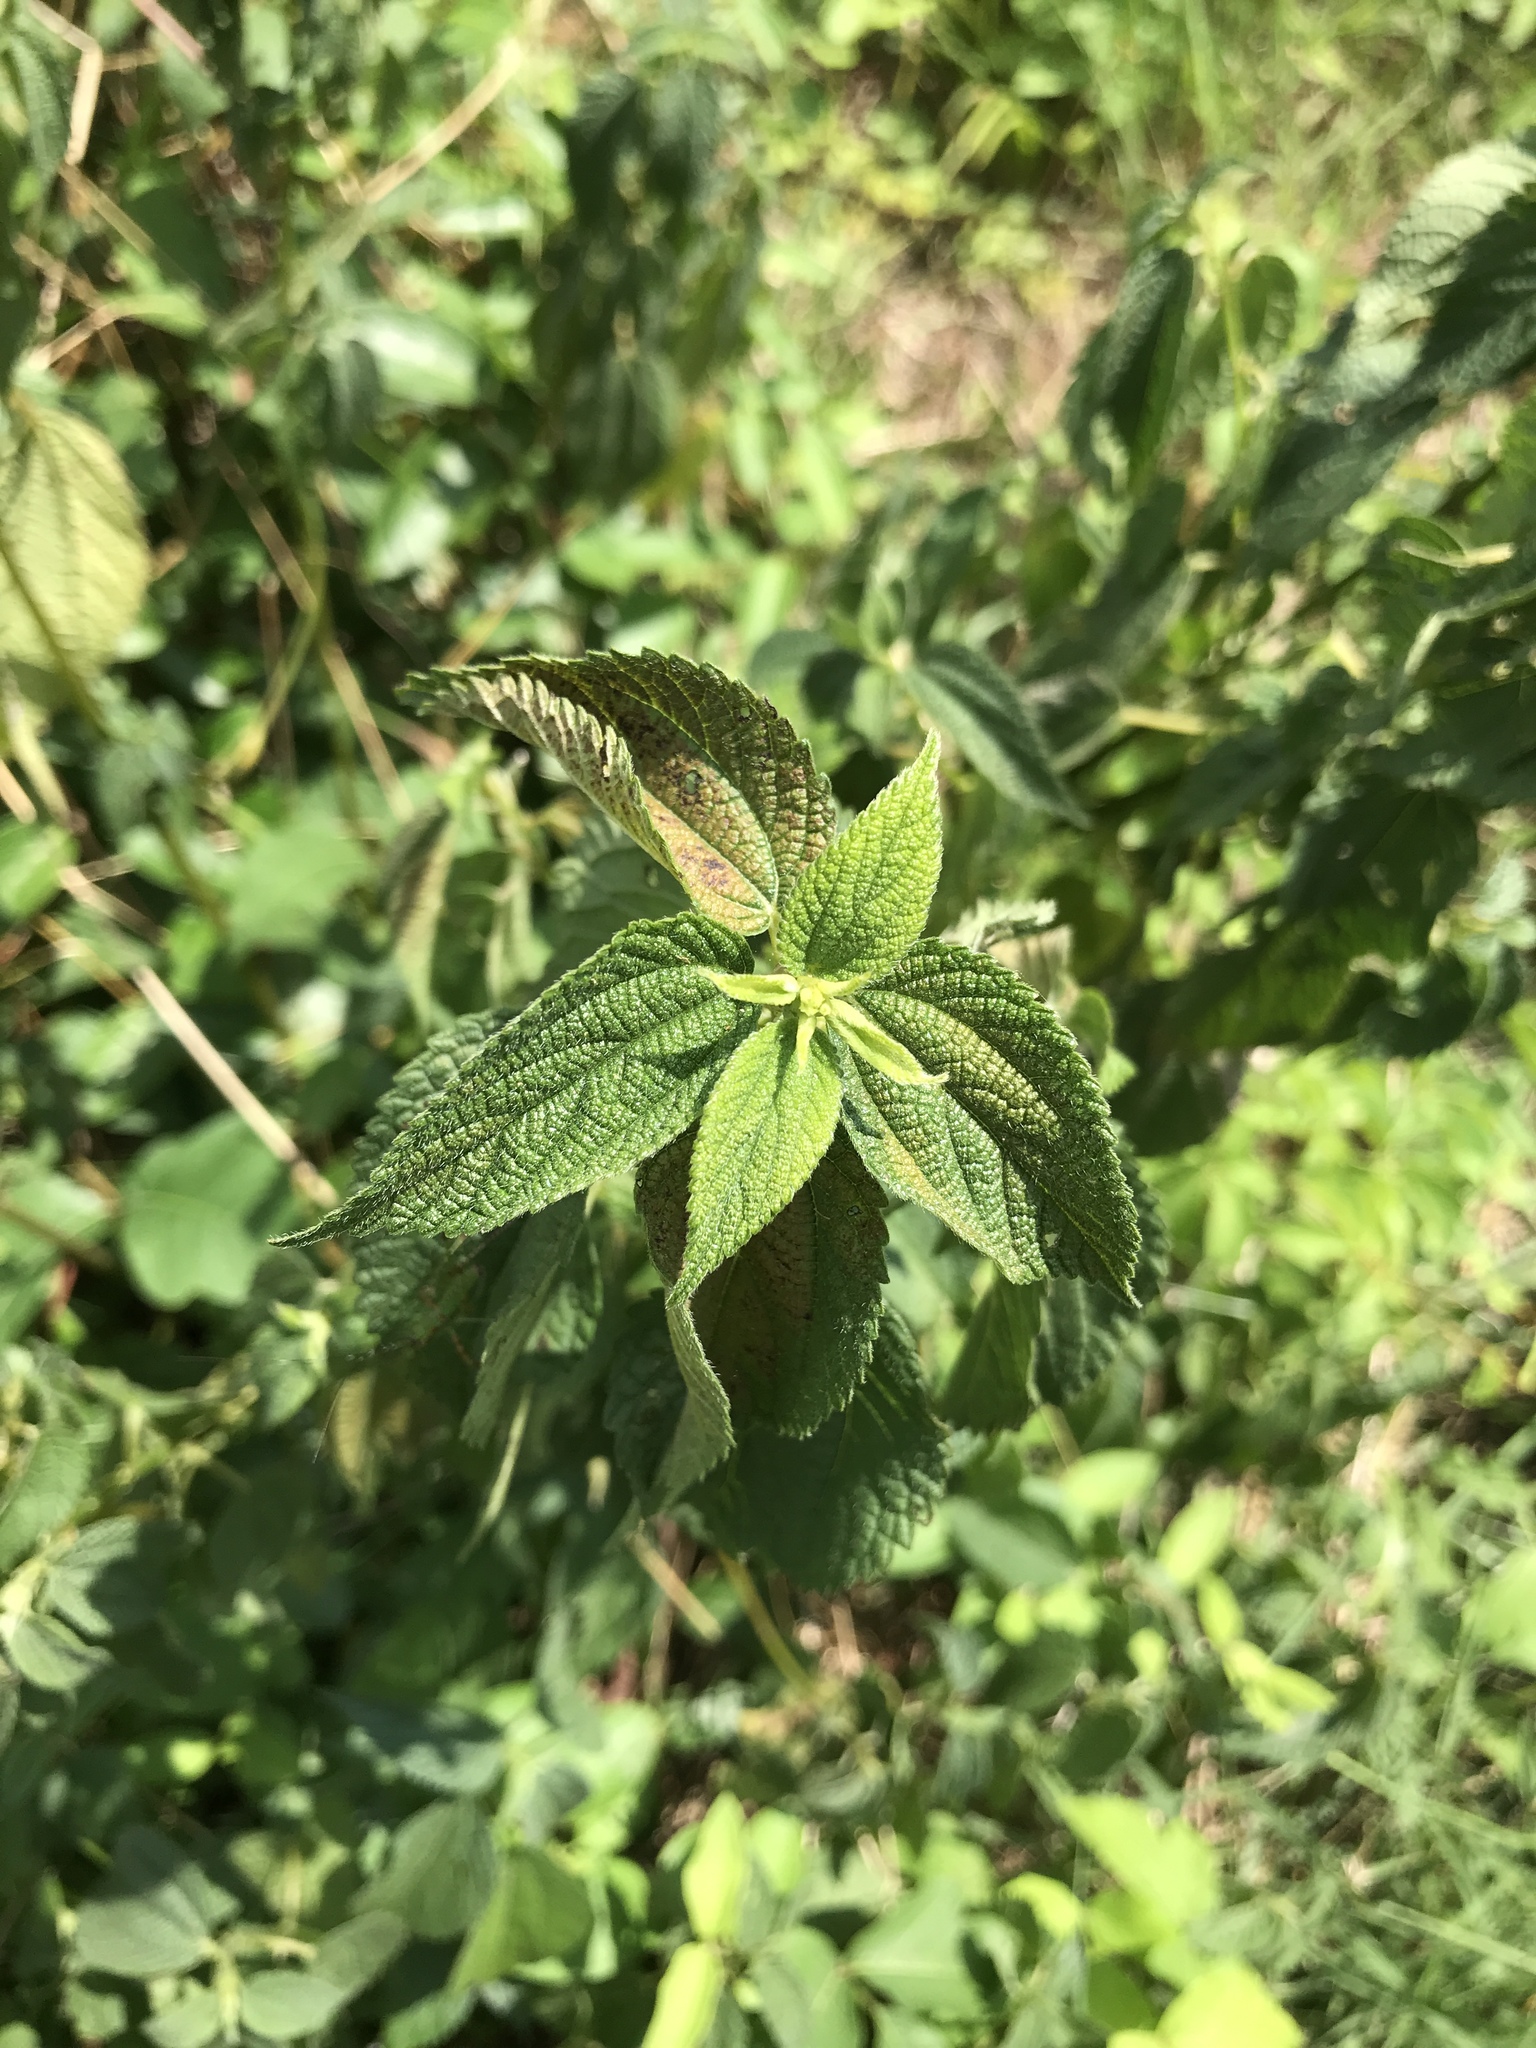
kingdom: Plantae
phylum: Tracheophyta
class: Magnoliopsida
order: Rosales
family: Urticaceae
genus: Boehmeria
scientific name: Boehmeria cylindrica
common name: Bog-hemp
